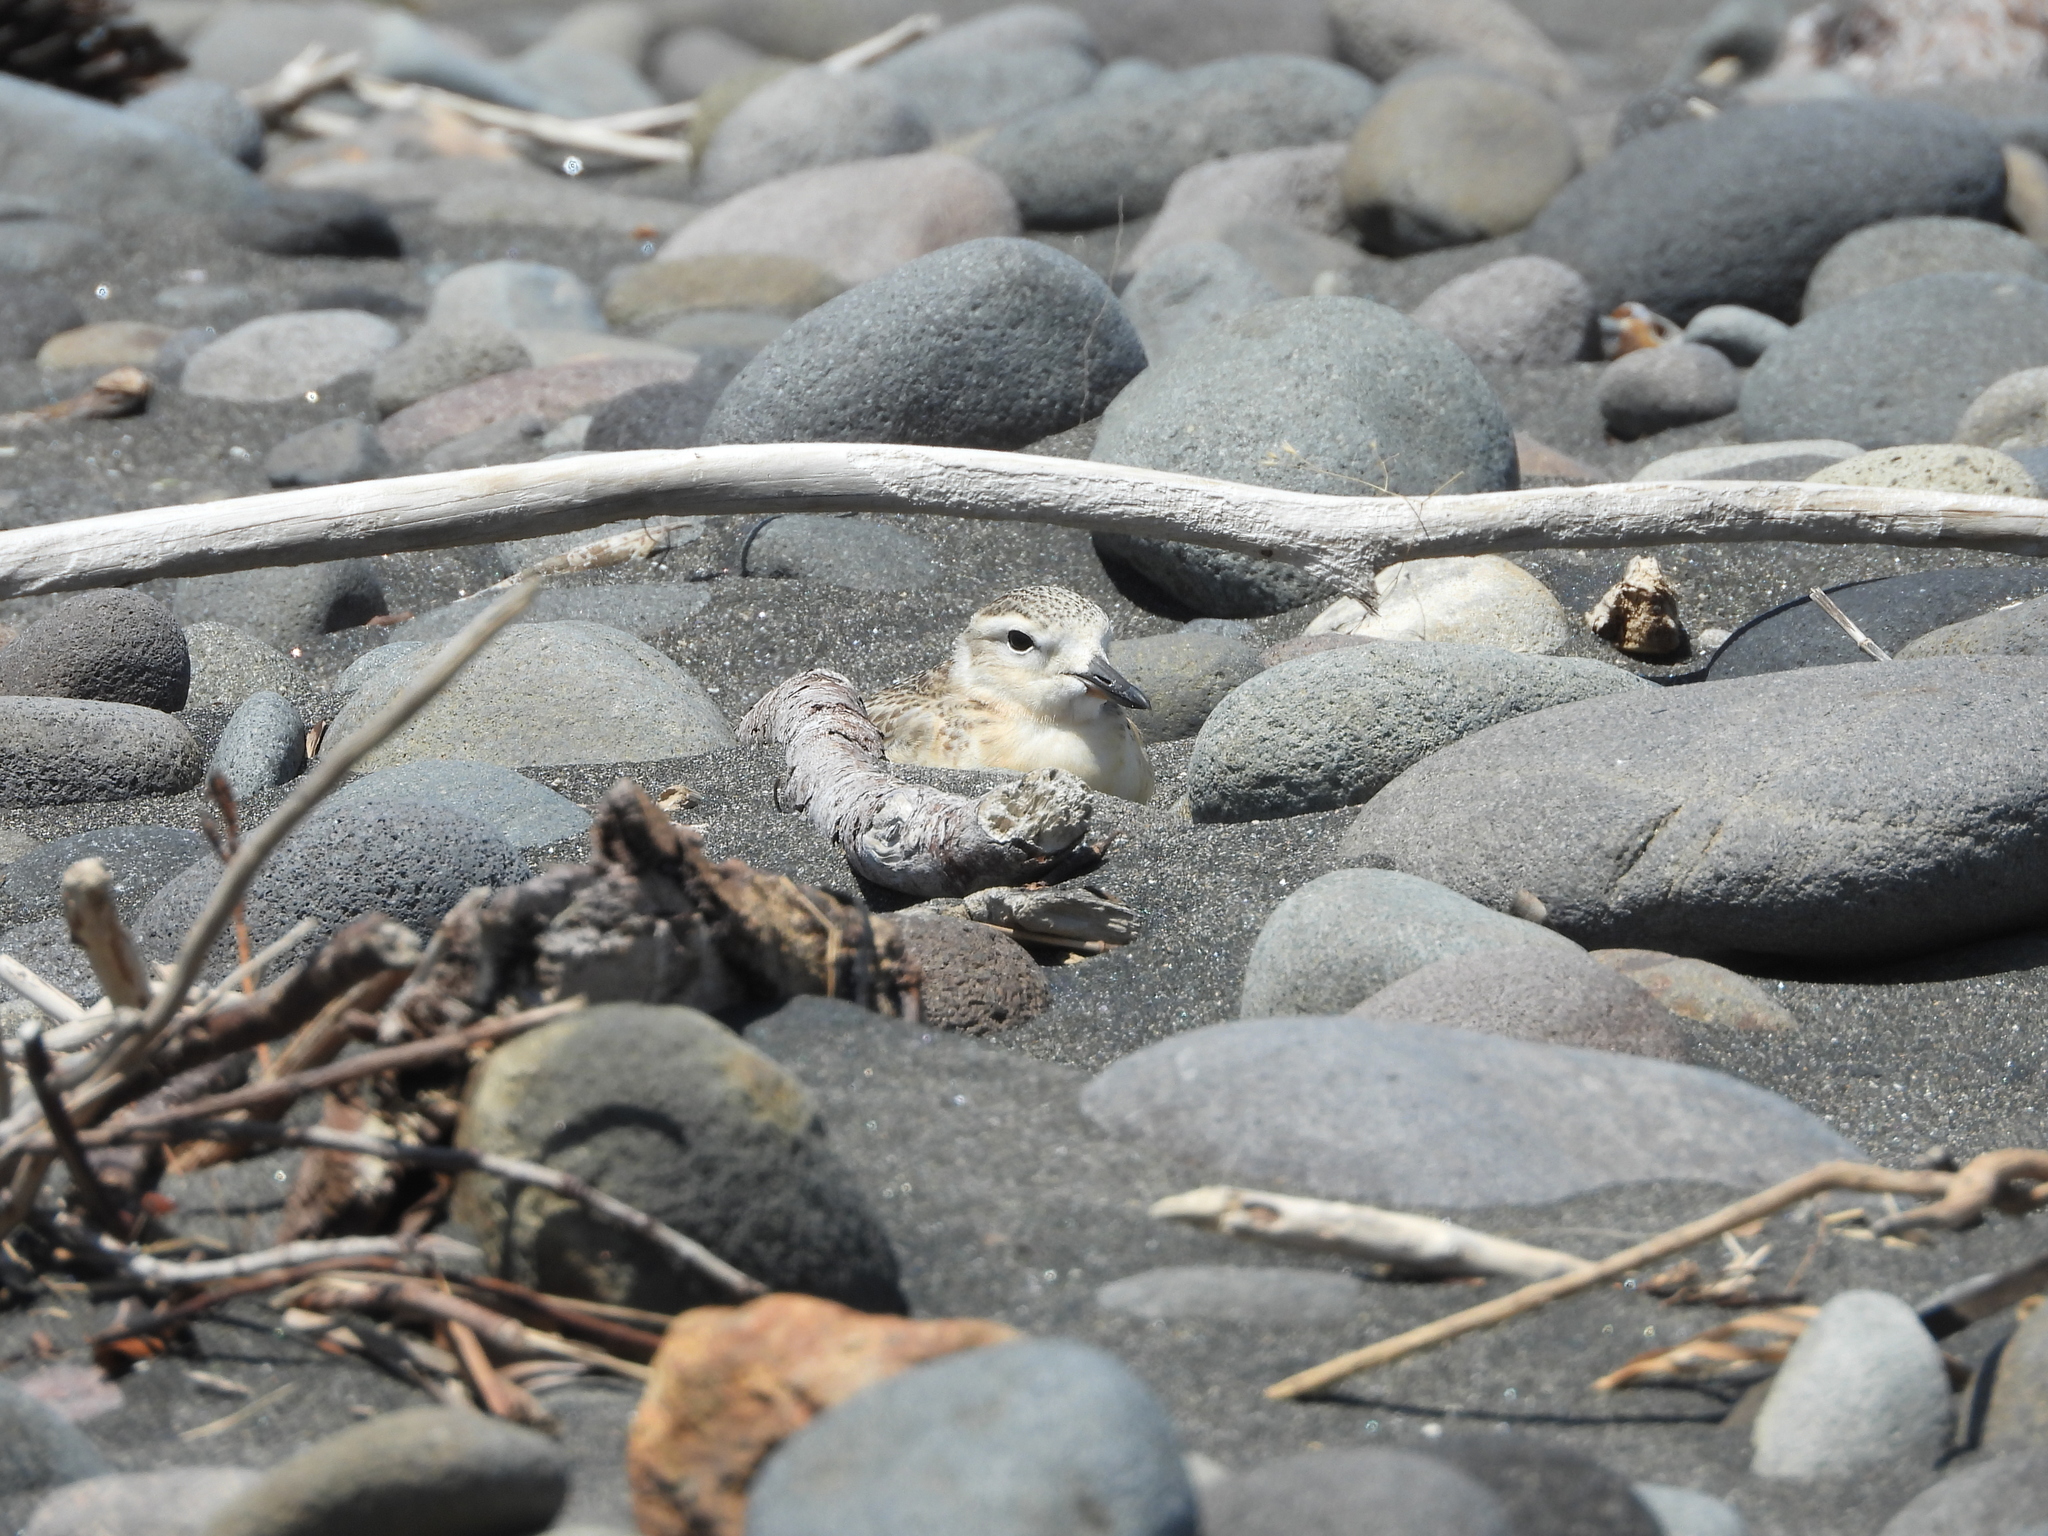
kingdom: Animalia
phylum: Chordata
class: Aves
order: Charadriiformes
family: Charadriidae
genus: Anarhynchus
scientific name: Anarhynchus
